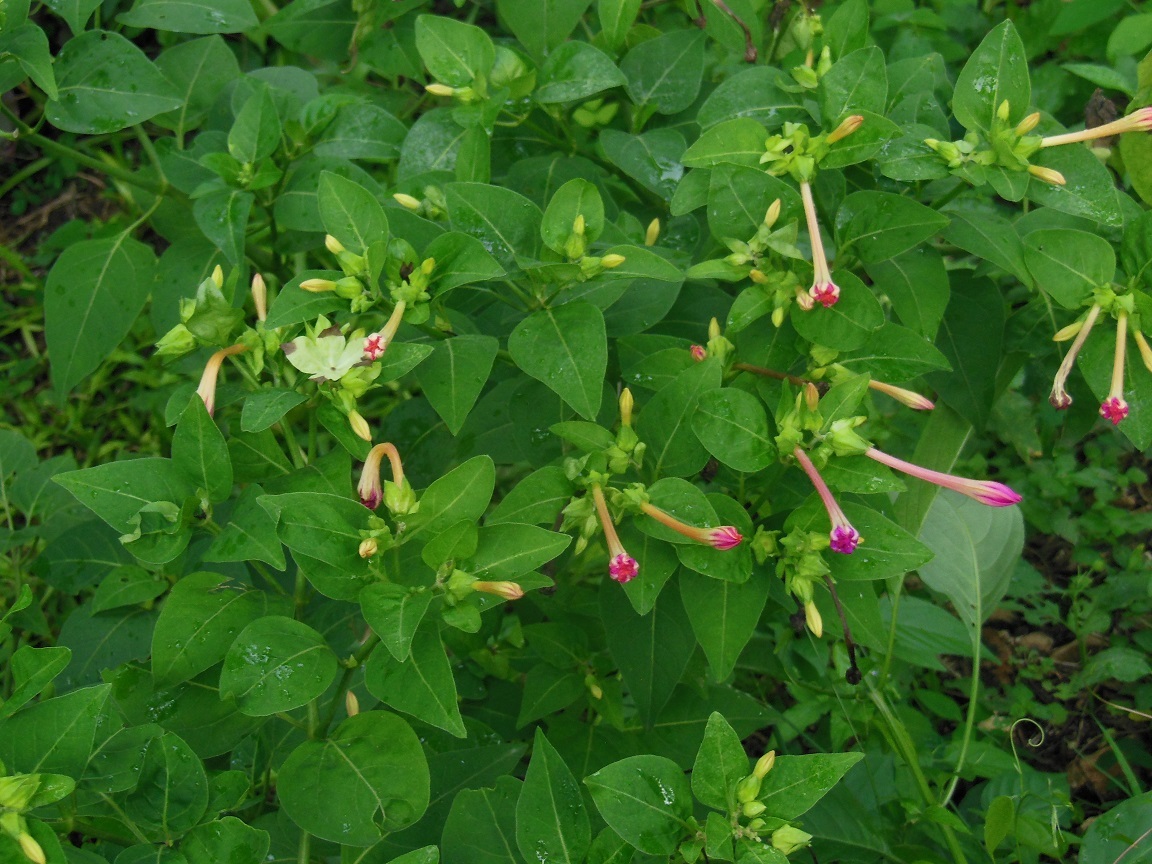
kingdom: Plantae
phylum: Tracheophyta
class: Magnoliopsida
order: Caryophyllales
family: Nyctaginaceae
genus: Mirabilis
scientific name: Mirabilis jalapa
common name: Marvel-of-peru
